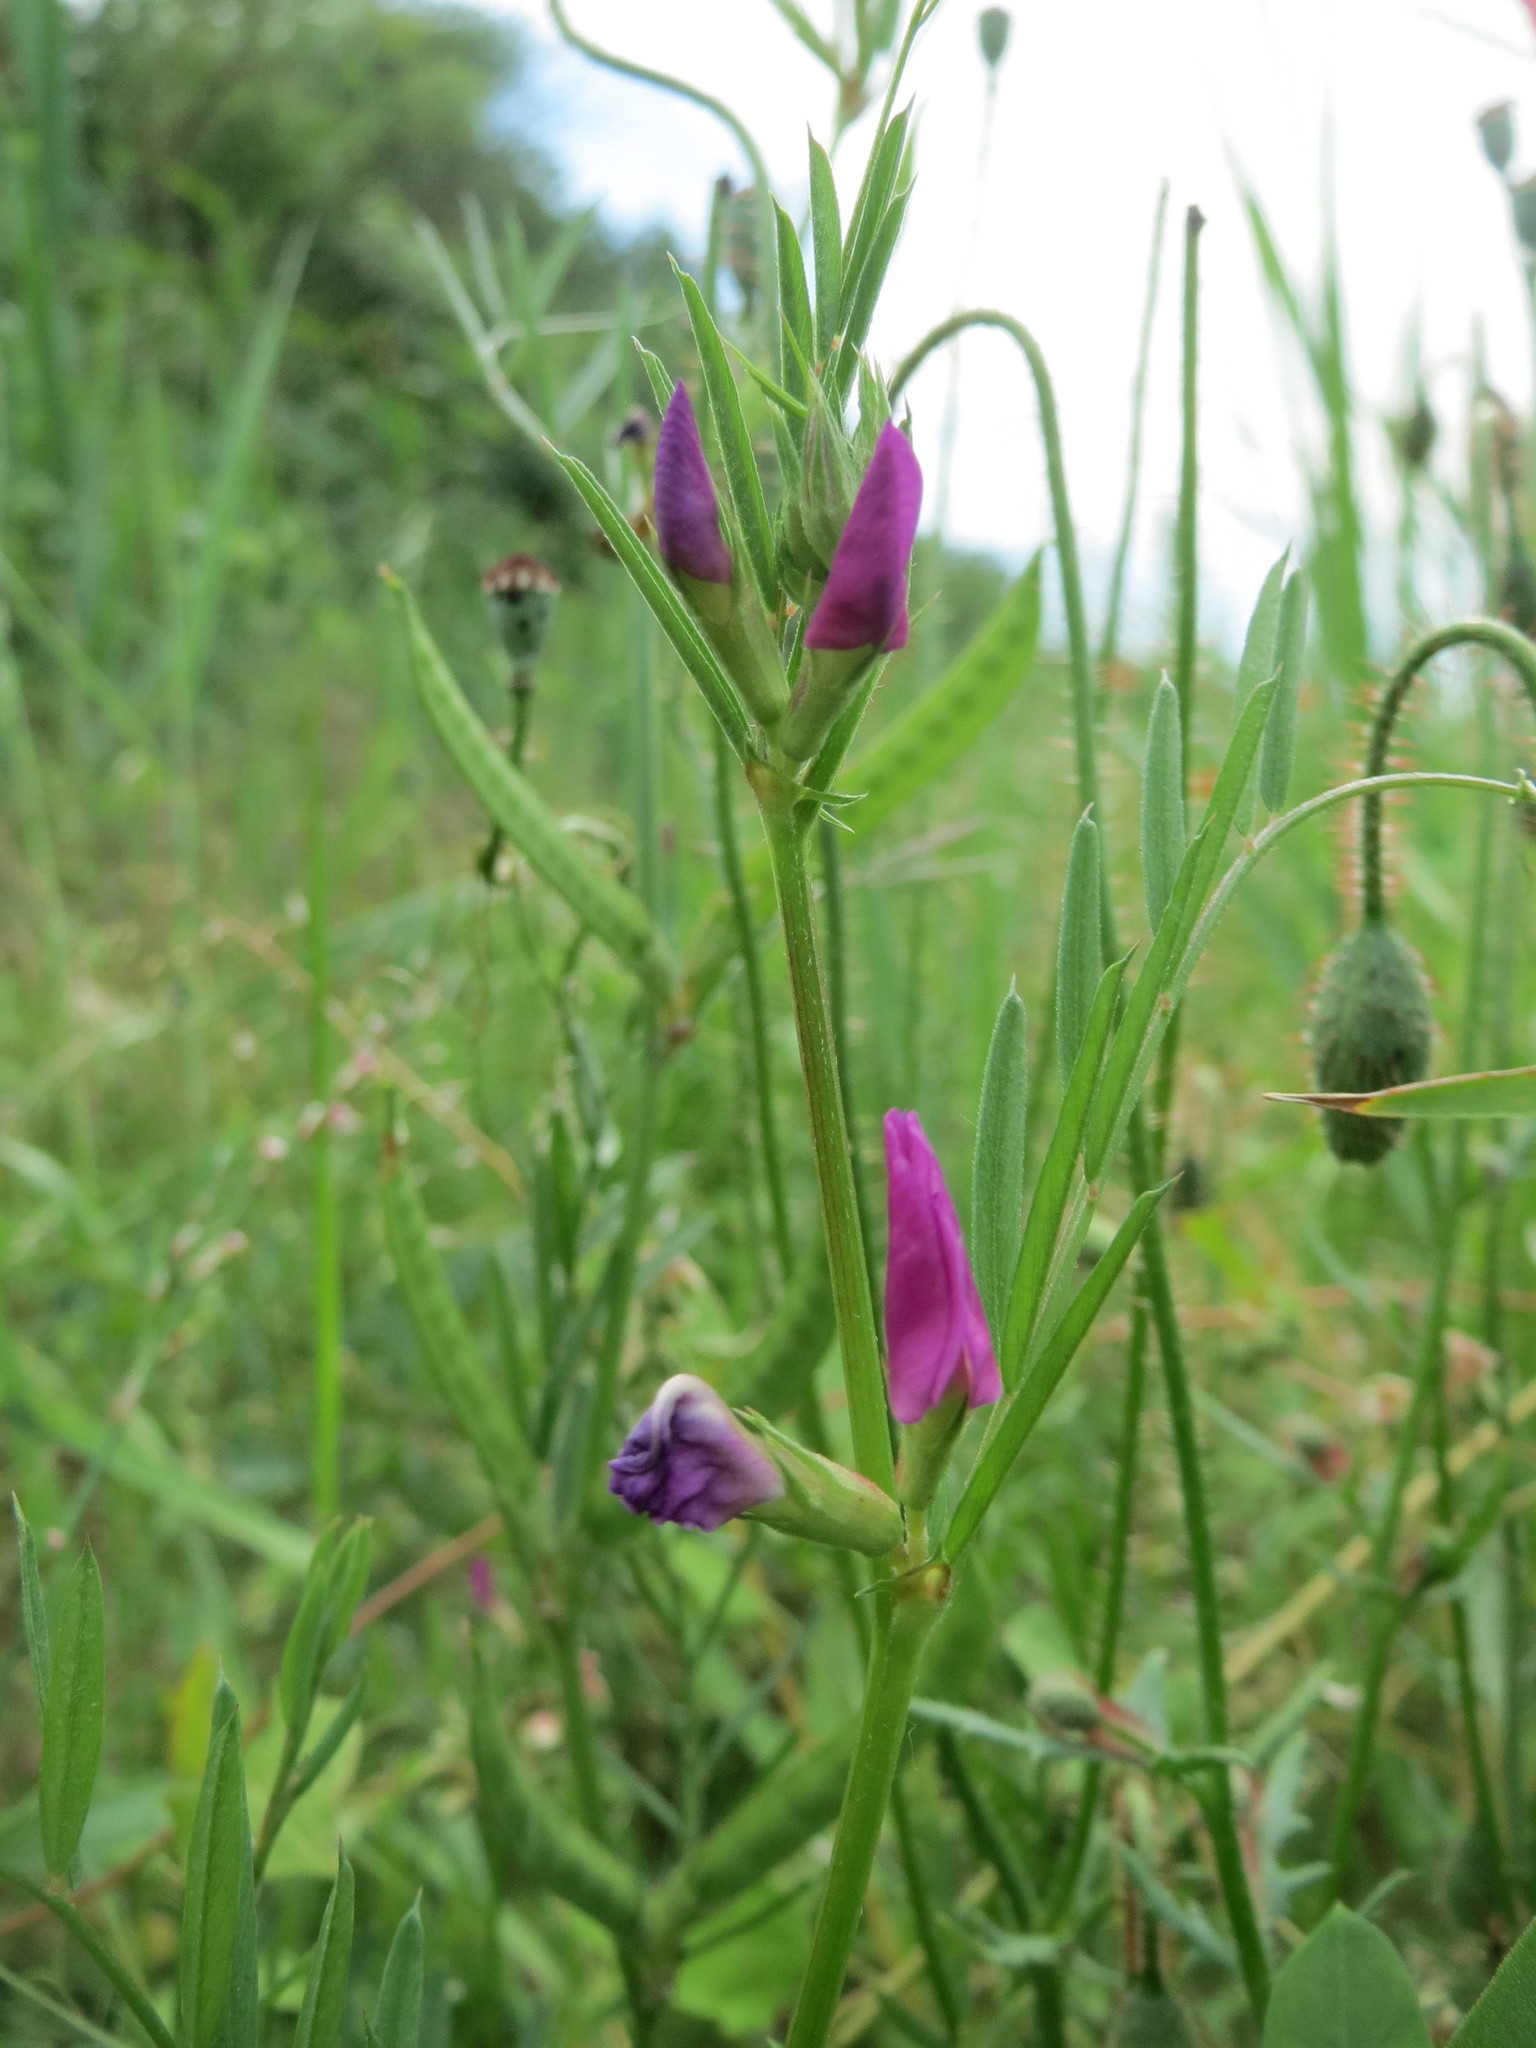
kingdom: Plantae
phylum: Tracheophyta
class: Magnoliopsida
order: Fabales
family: Fabaceae
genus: Vicia
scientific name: Vicia sativa
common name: Garden vetch
